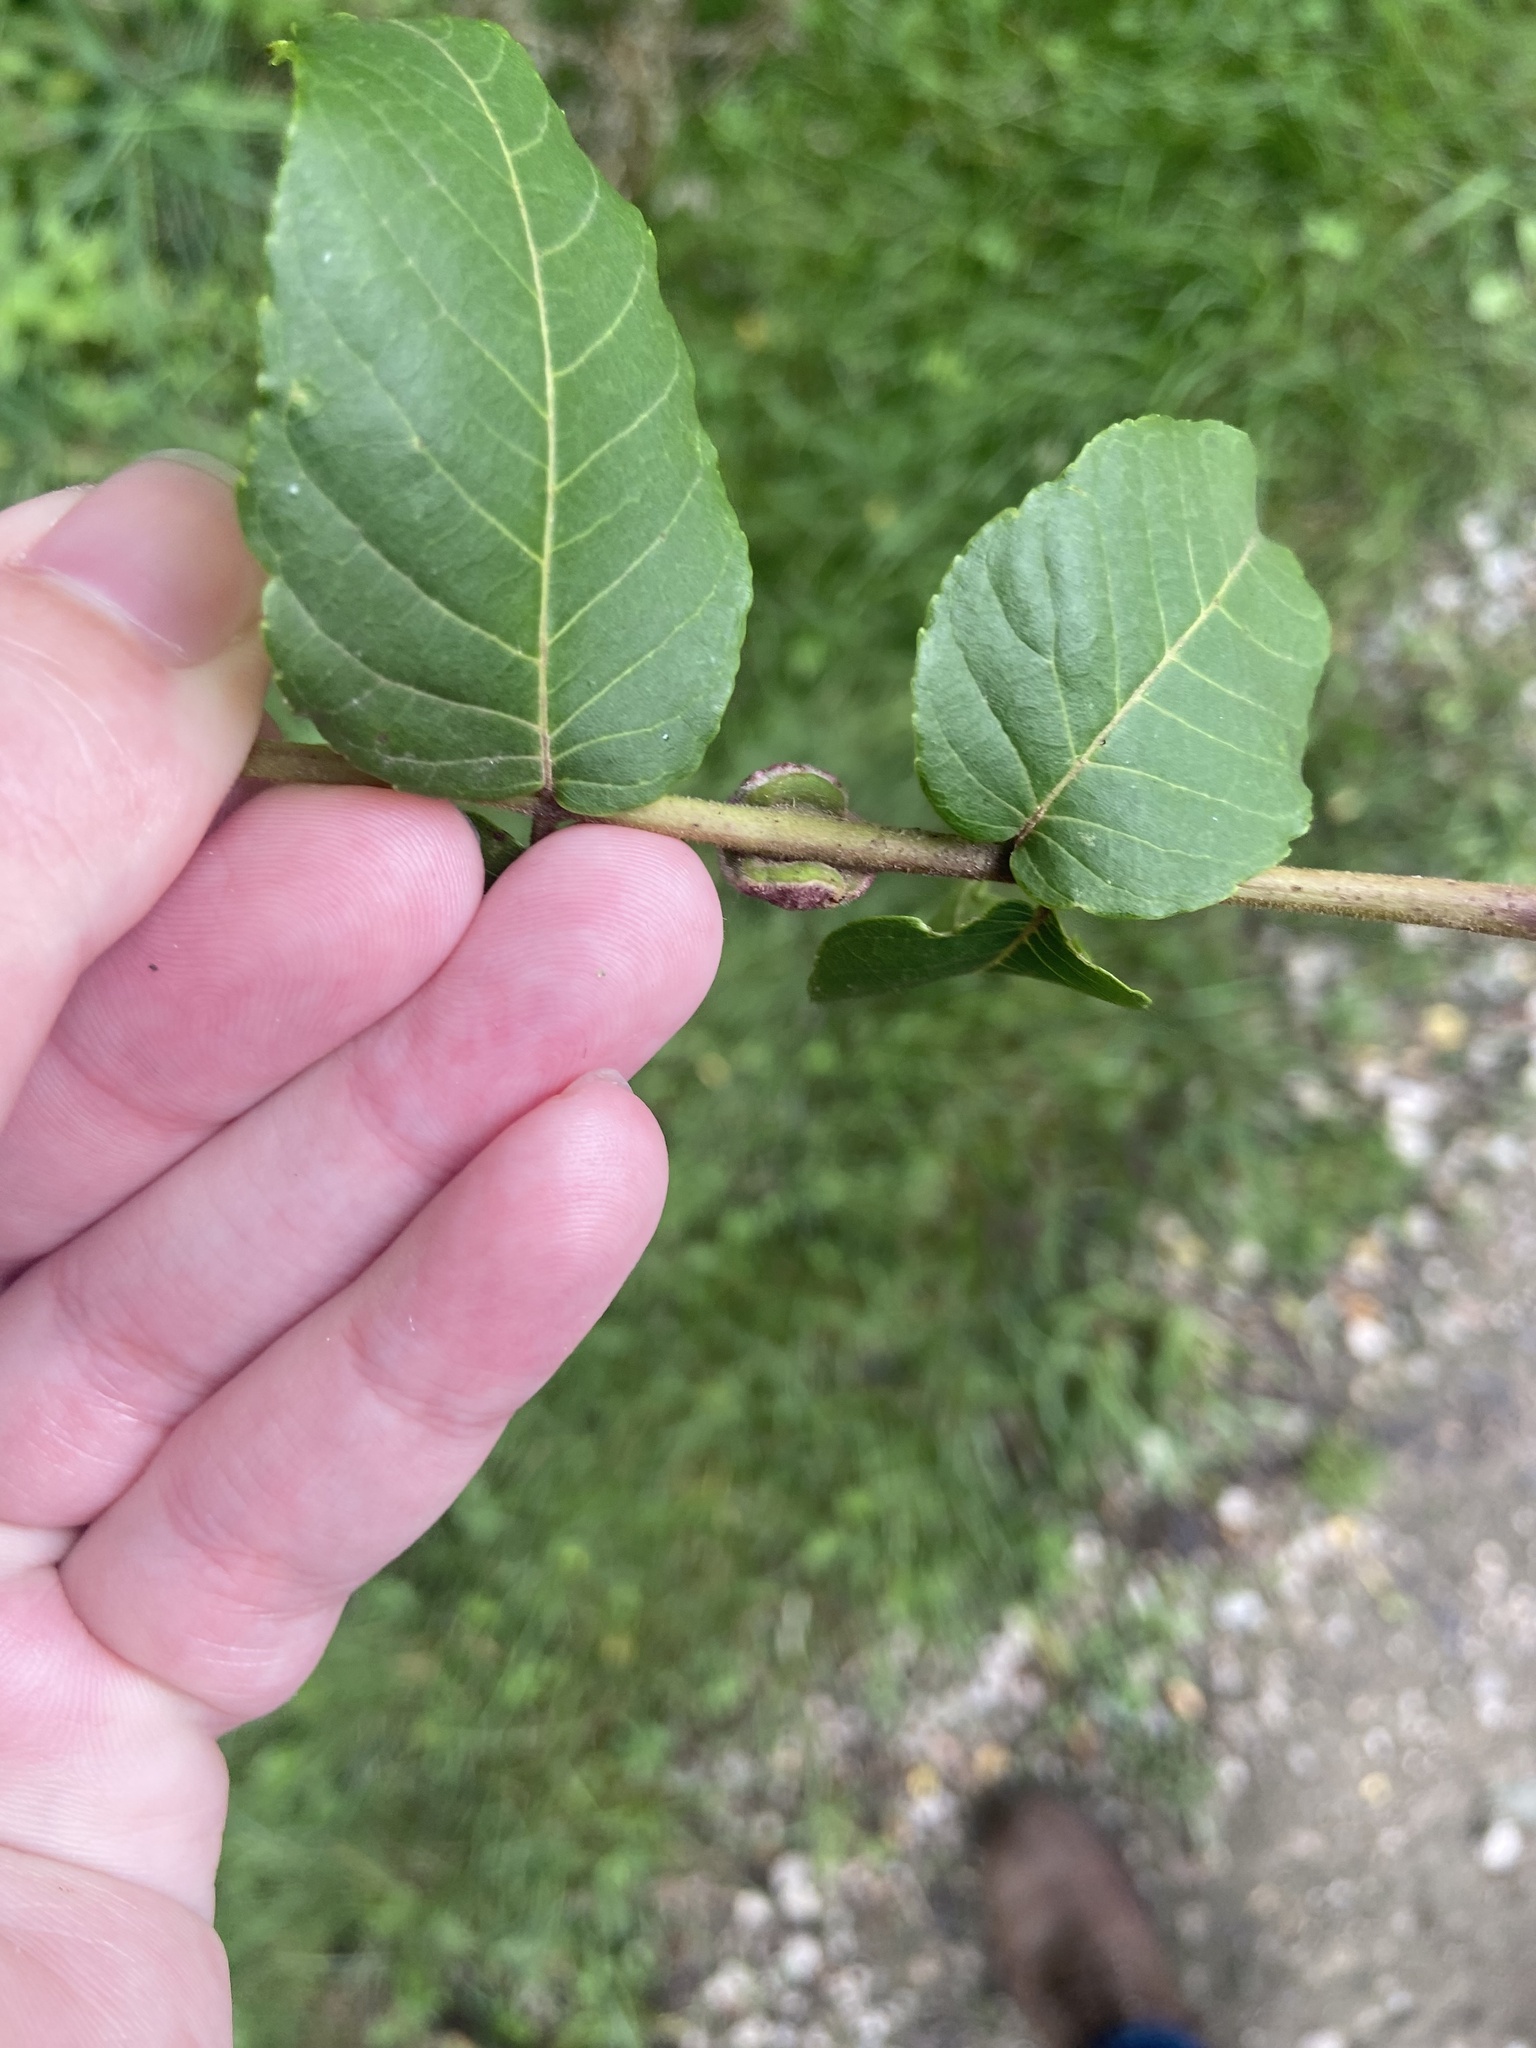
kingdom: Animalia
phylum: Arthropoda
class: Arachnida
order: Trombidiformes
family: Eriophyidae
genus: Aceria
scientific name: Aceria
